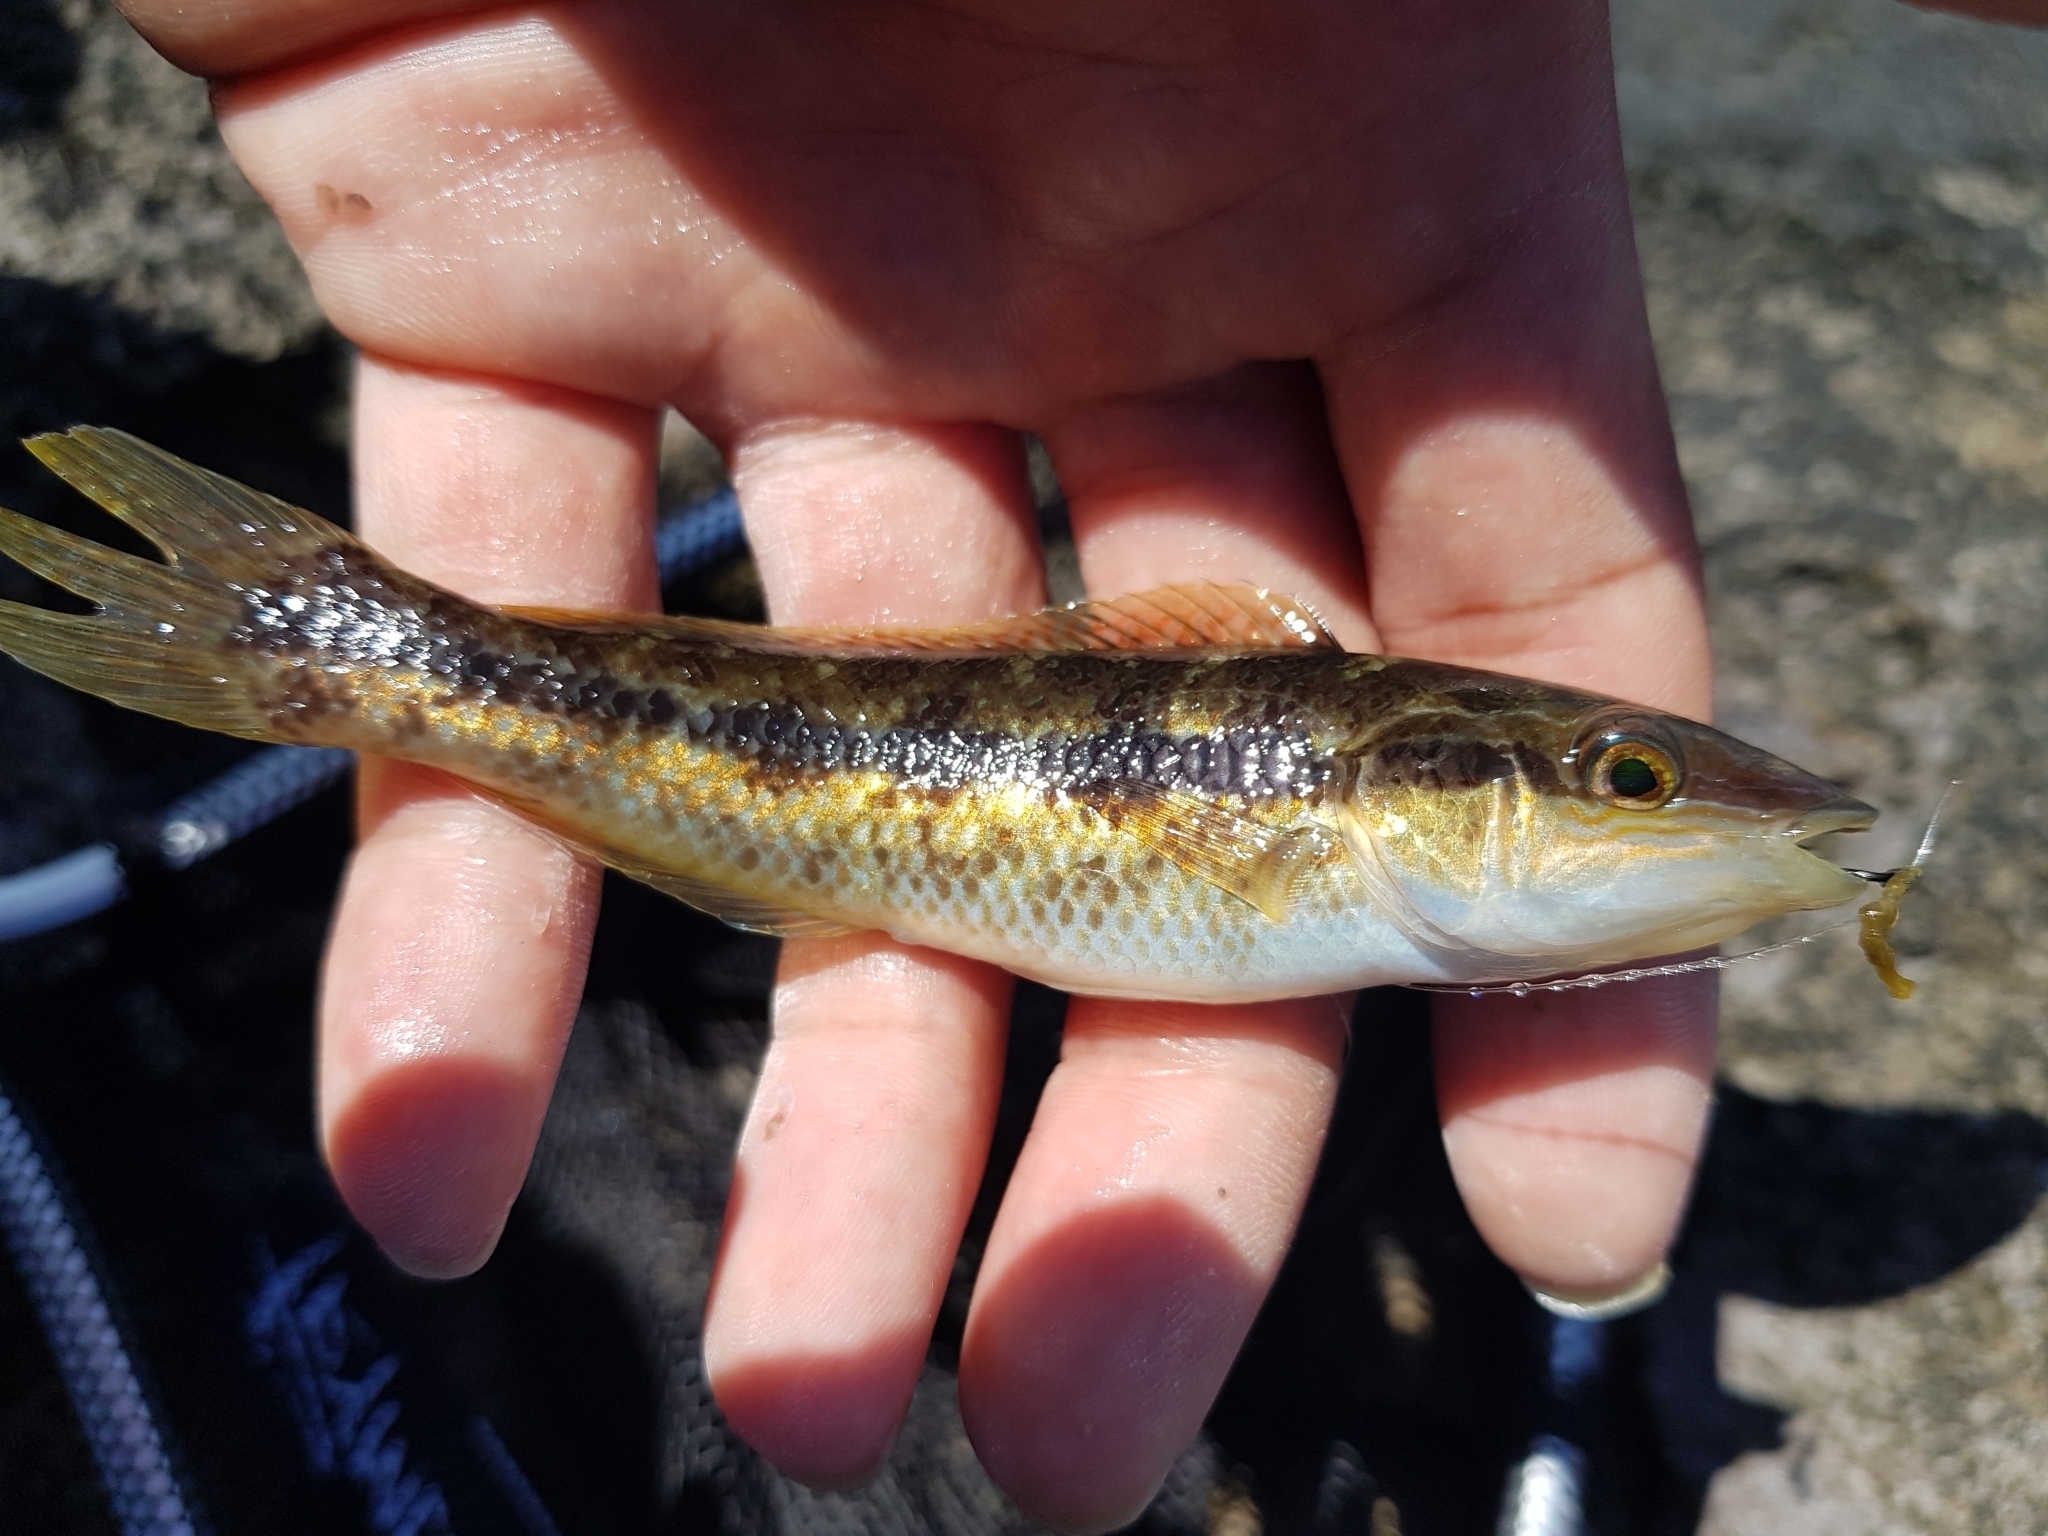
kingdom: Animalia
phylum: Chordata
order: Perciformes
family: Odacidae
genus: Neoodax
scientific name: Neoodax balteatus
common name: Ground mullet
